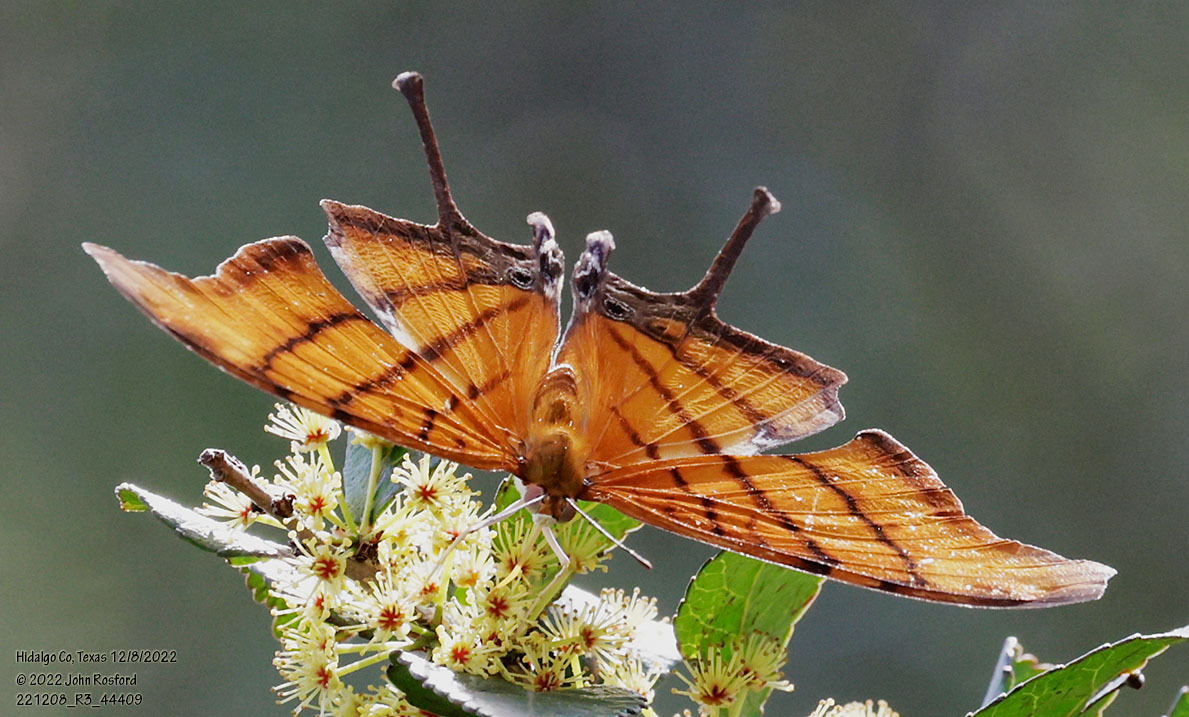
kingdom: Animalia
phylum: Arthropoda
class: Insecta
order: Lepidoptera
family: Nymphalidae
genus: Marpesia
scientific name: Marpesia petreus
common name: Red dagger wing
